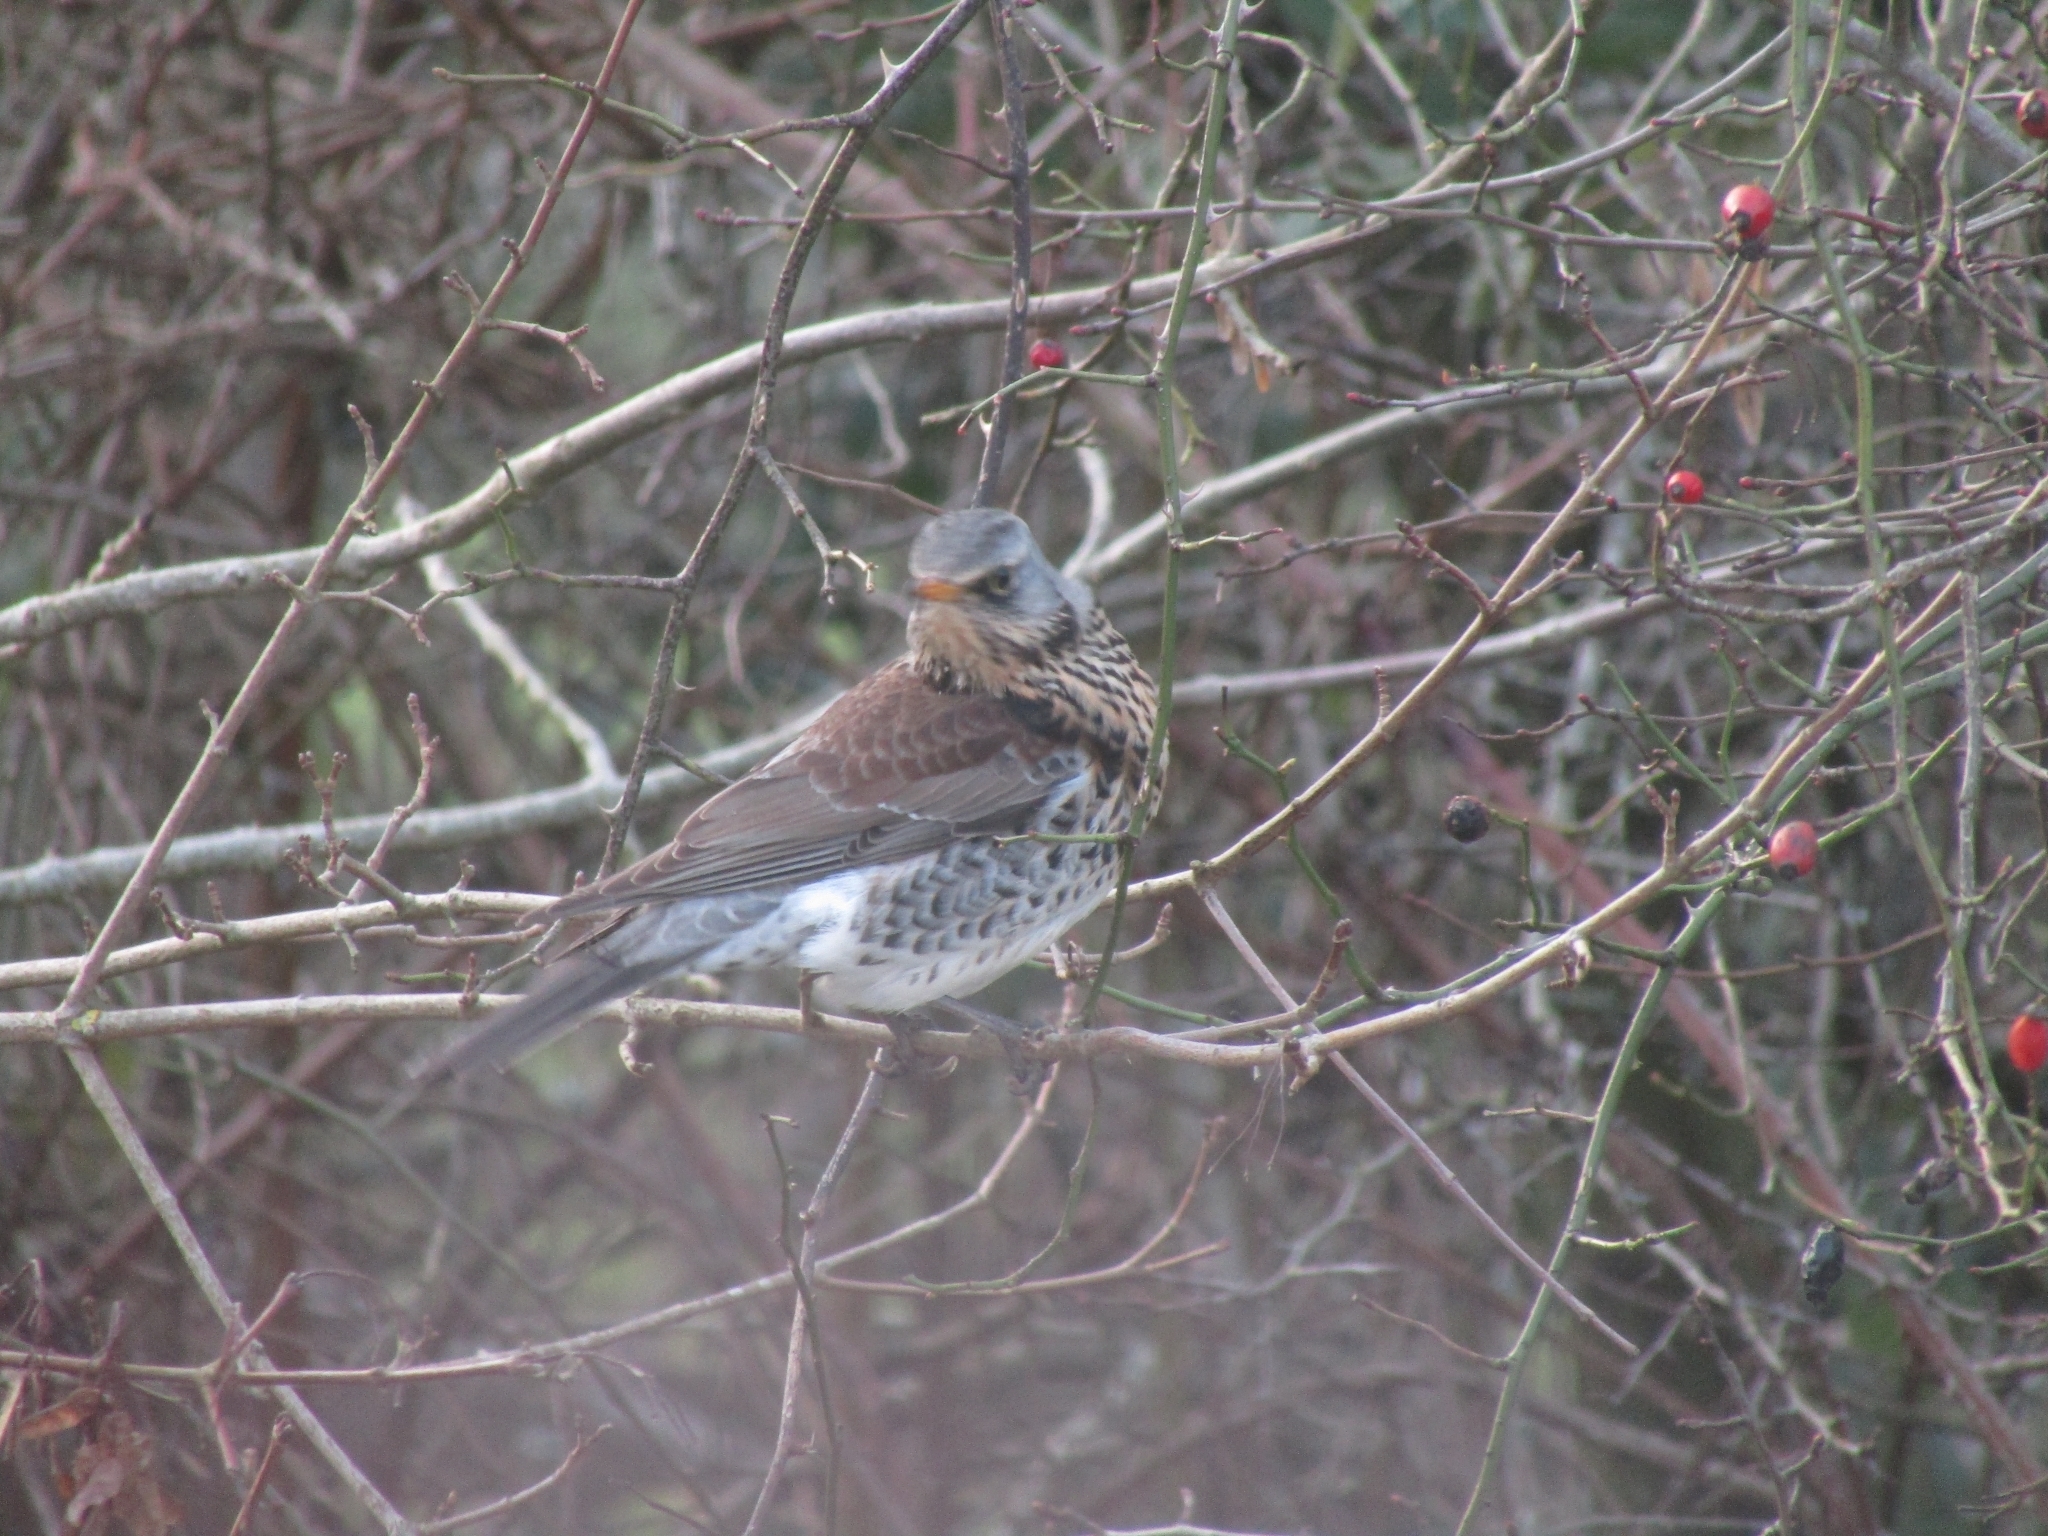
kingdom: Animalia
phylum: Chordata
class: Aves
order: Passeriformes
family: Turdidae
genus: Turdus
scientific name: Turdus pilaris
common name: Fieldfare
